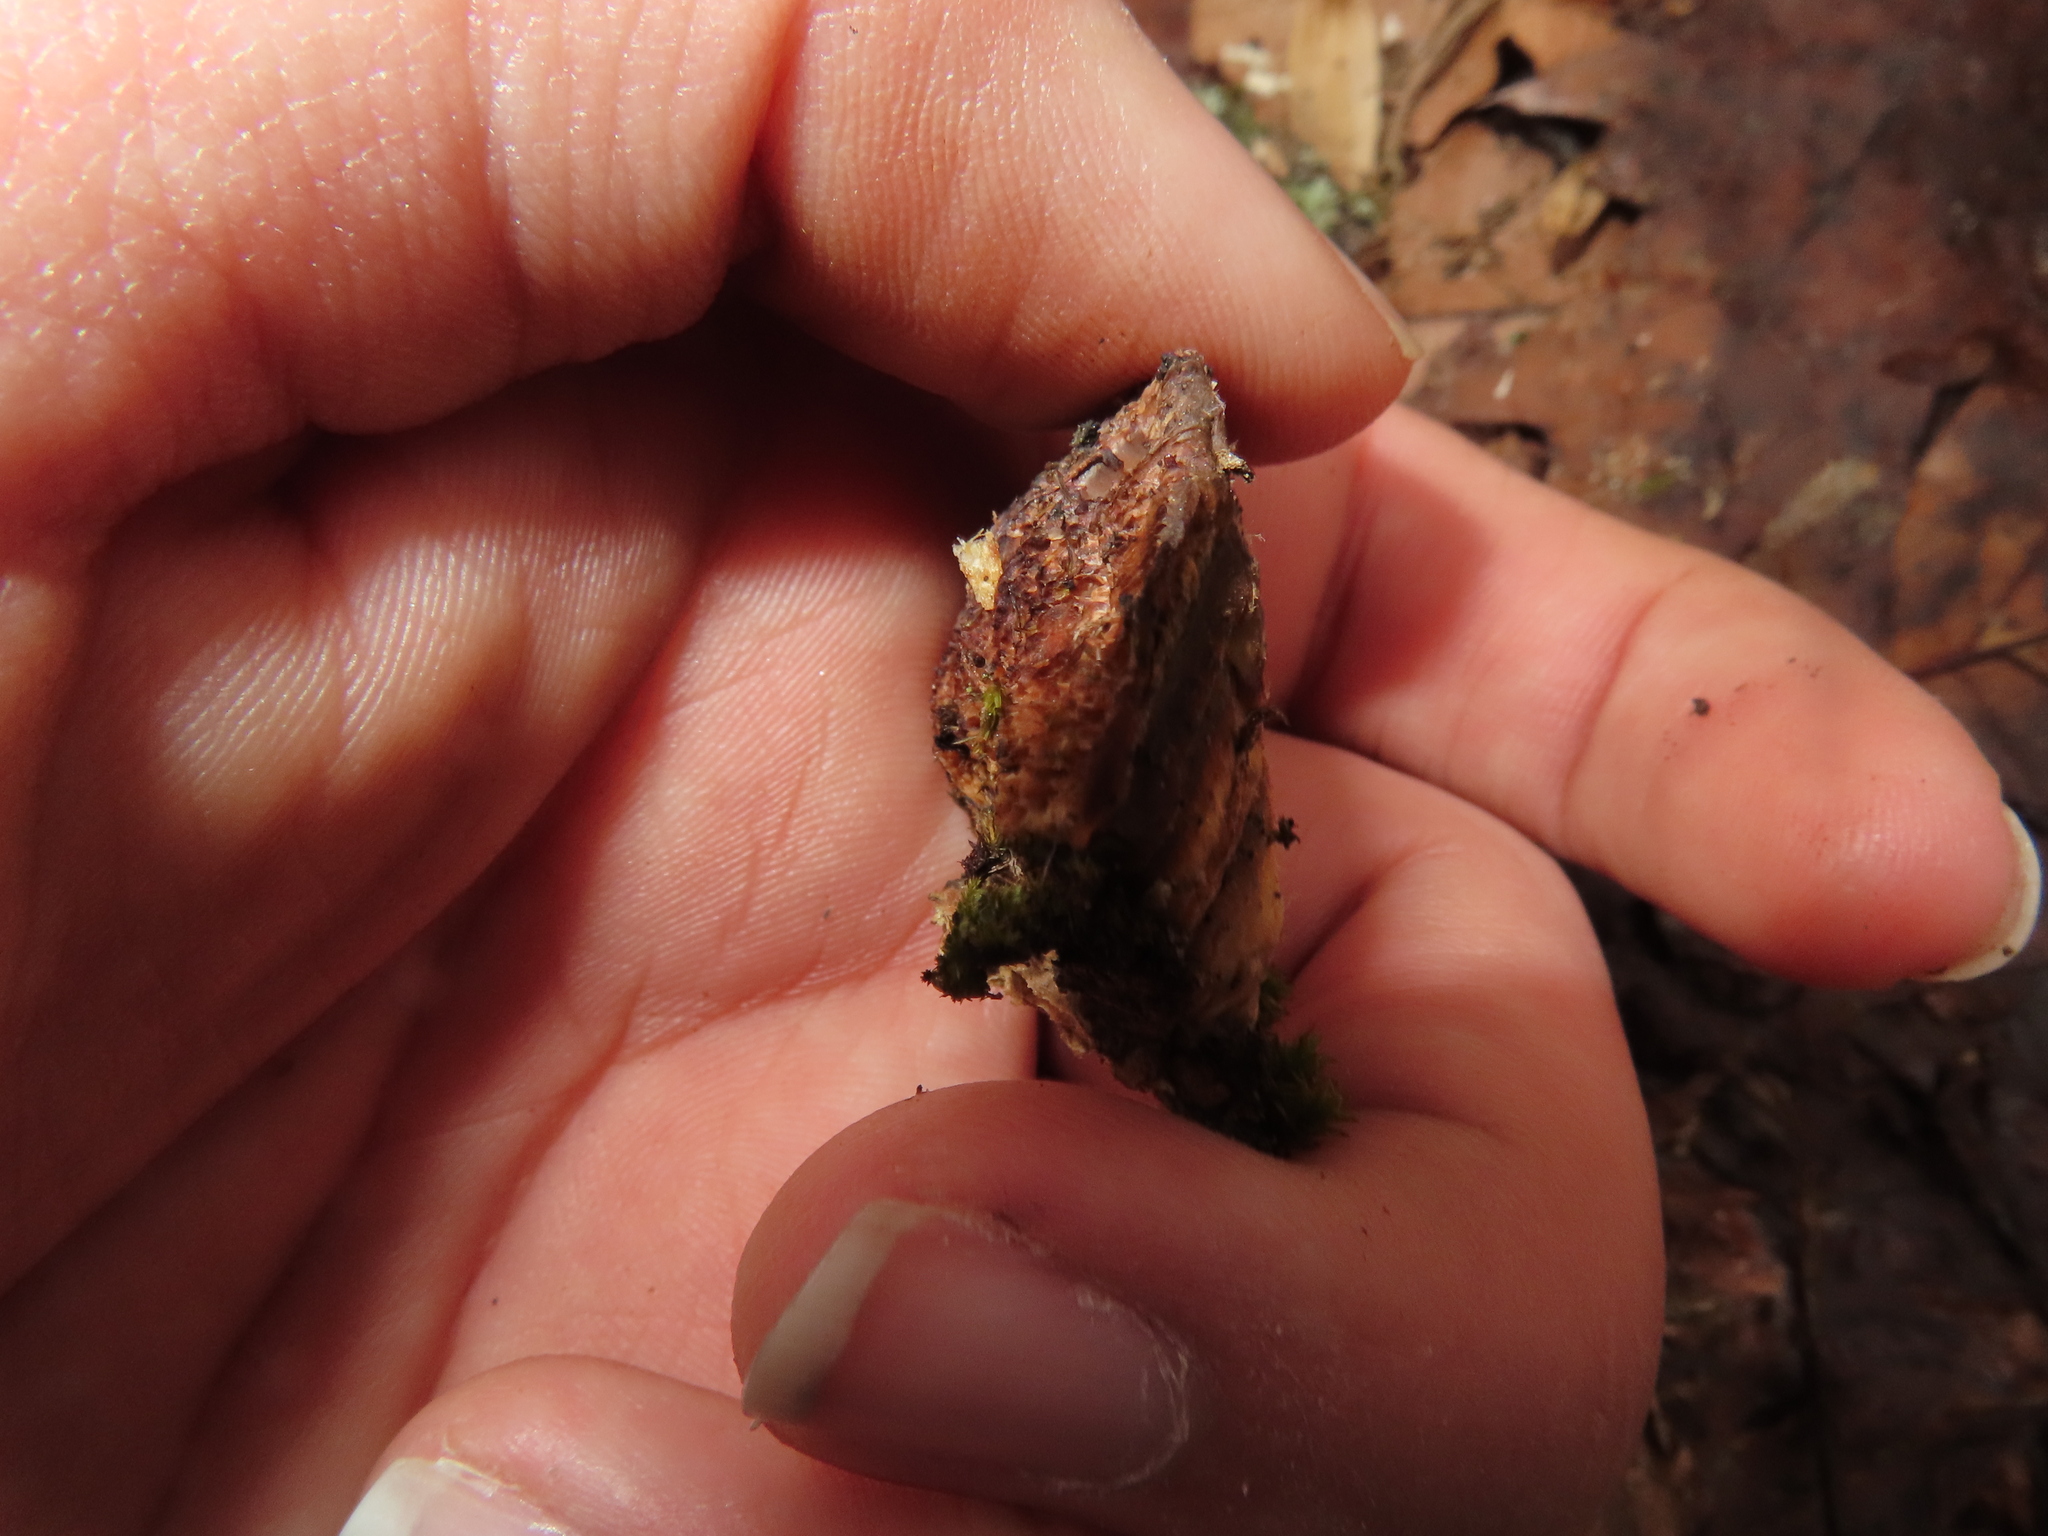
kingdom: Fungi
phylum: Basidiomycota
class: Agaricomycetes
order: Polyporales
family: Fomitopsidaceae
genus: Fomitopsis
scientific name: Fomitopsis
